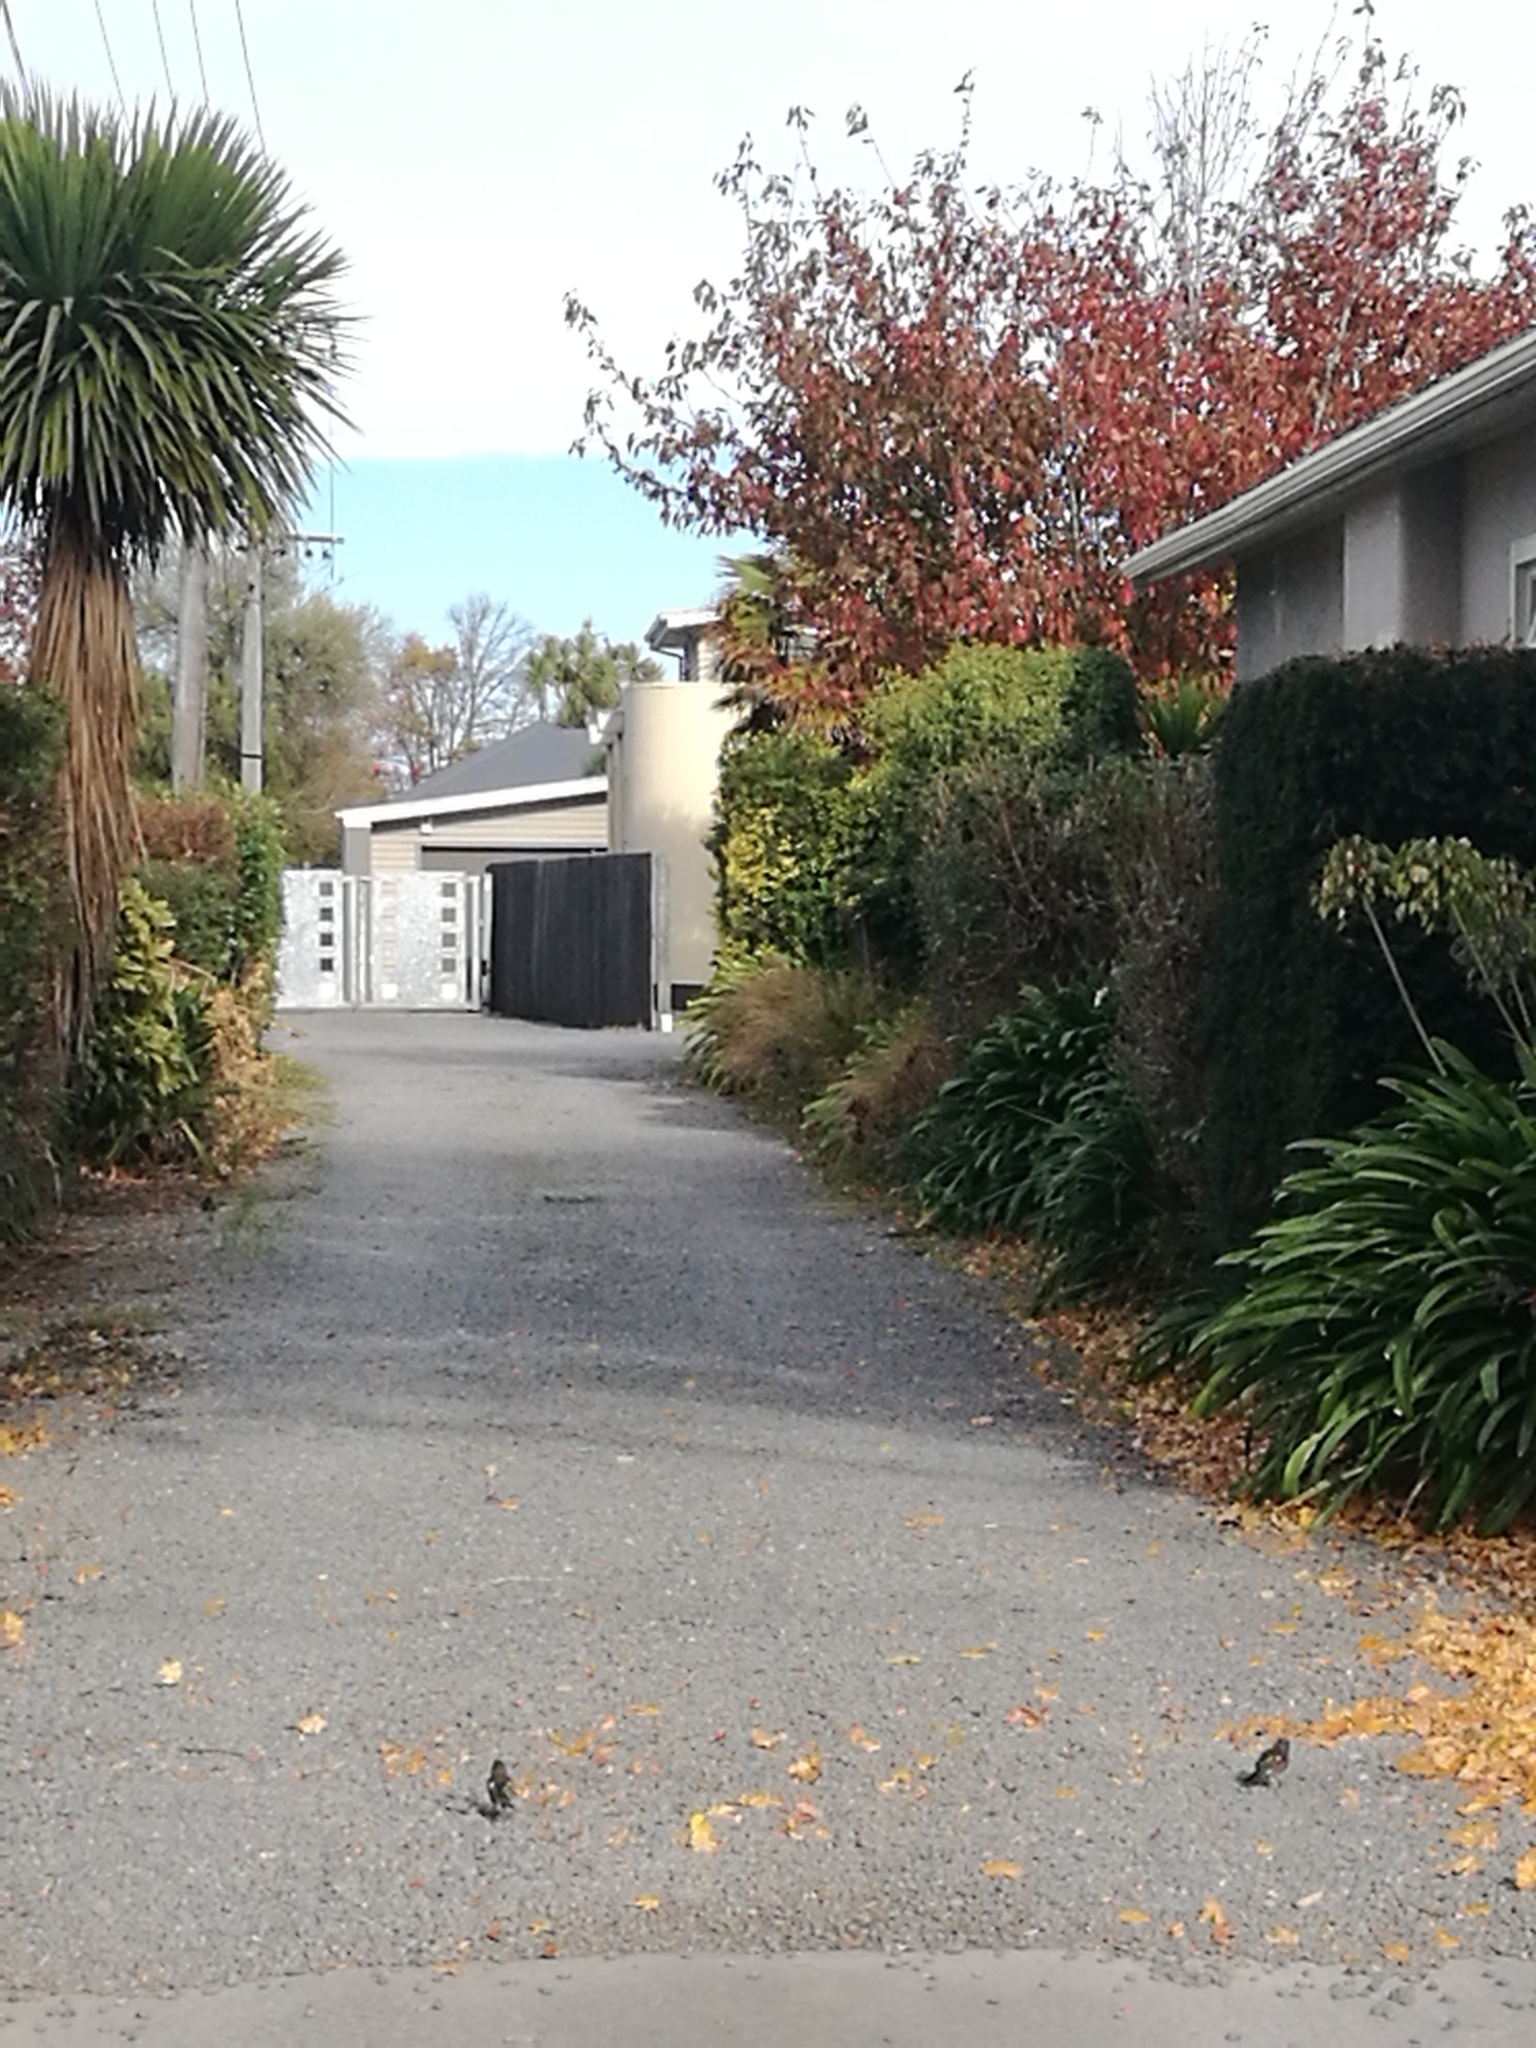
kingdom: Animalia
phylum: Chordata
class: Aves
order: Passeriformes
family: Fringillidae
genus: Fringilla
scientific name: Fringilla coelebs
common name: Common chaffinch
